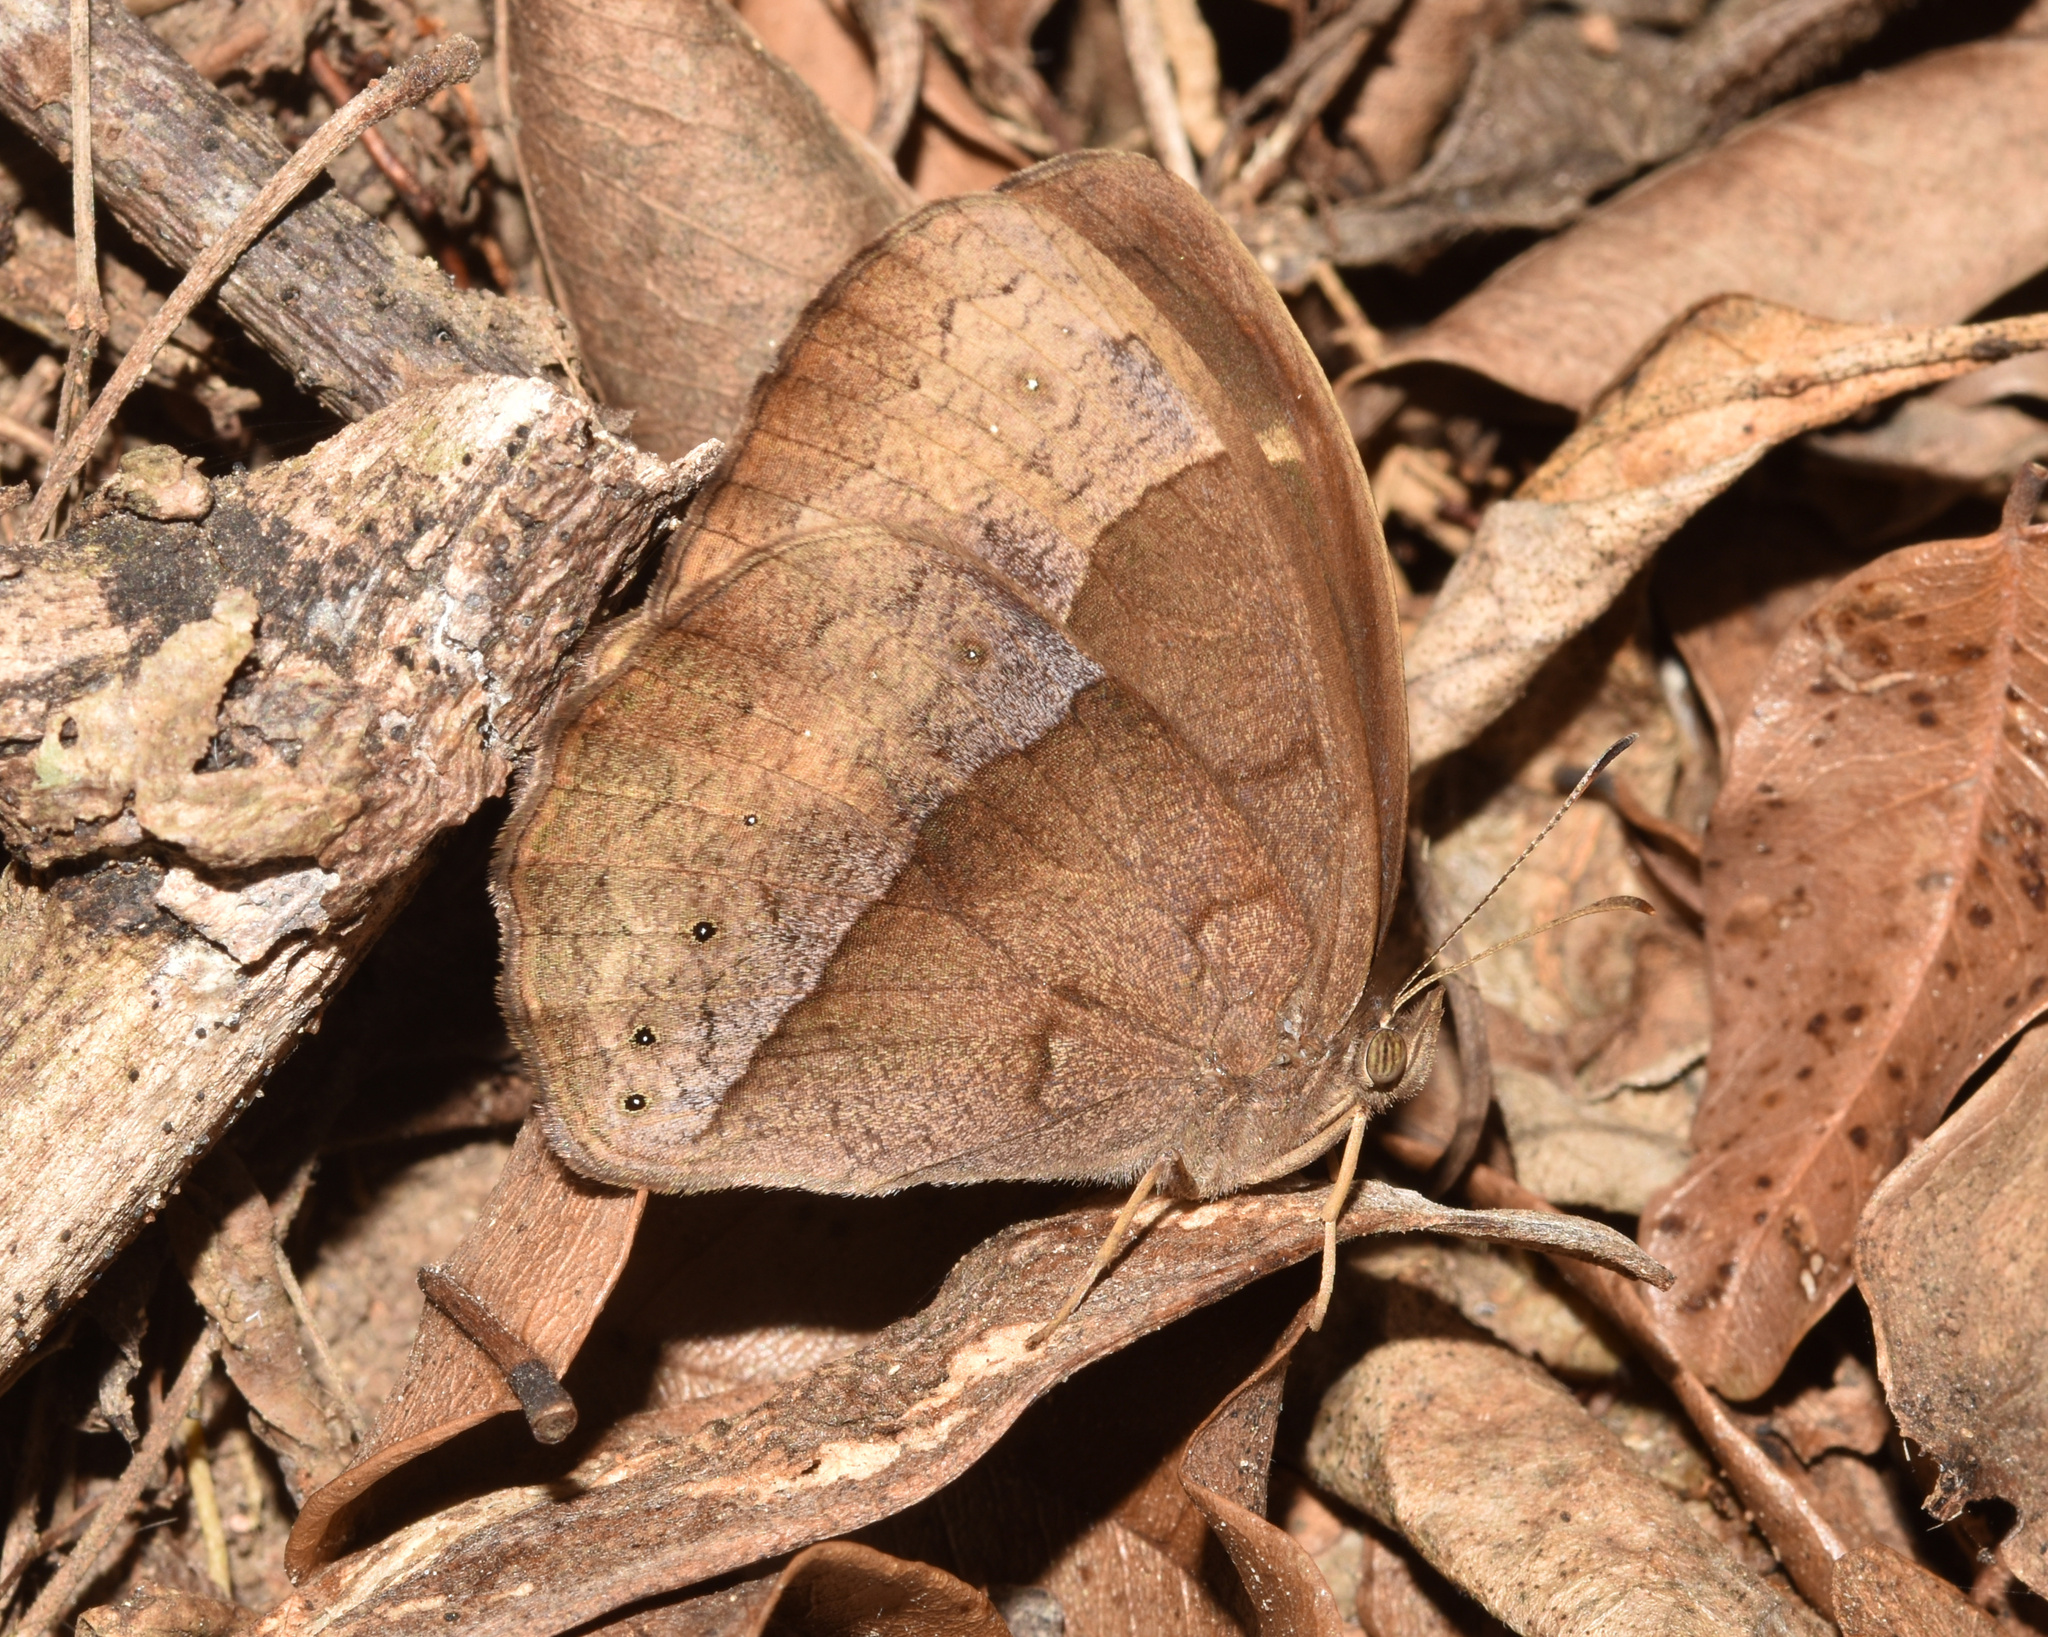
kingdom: Animalia
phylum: Arthropoda
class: Insecta
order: Lepidoptera
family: Nymphalidae
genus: Mycalesis
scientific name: Mycalesis rhacotis
